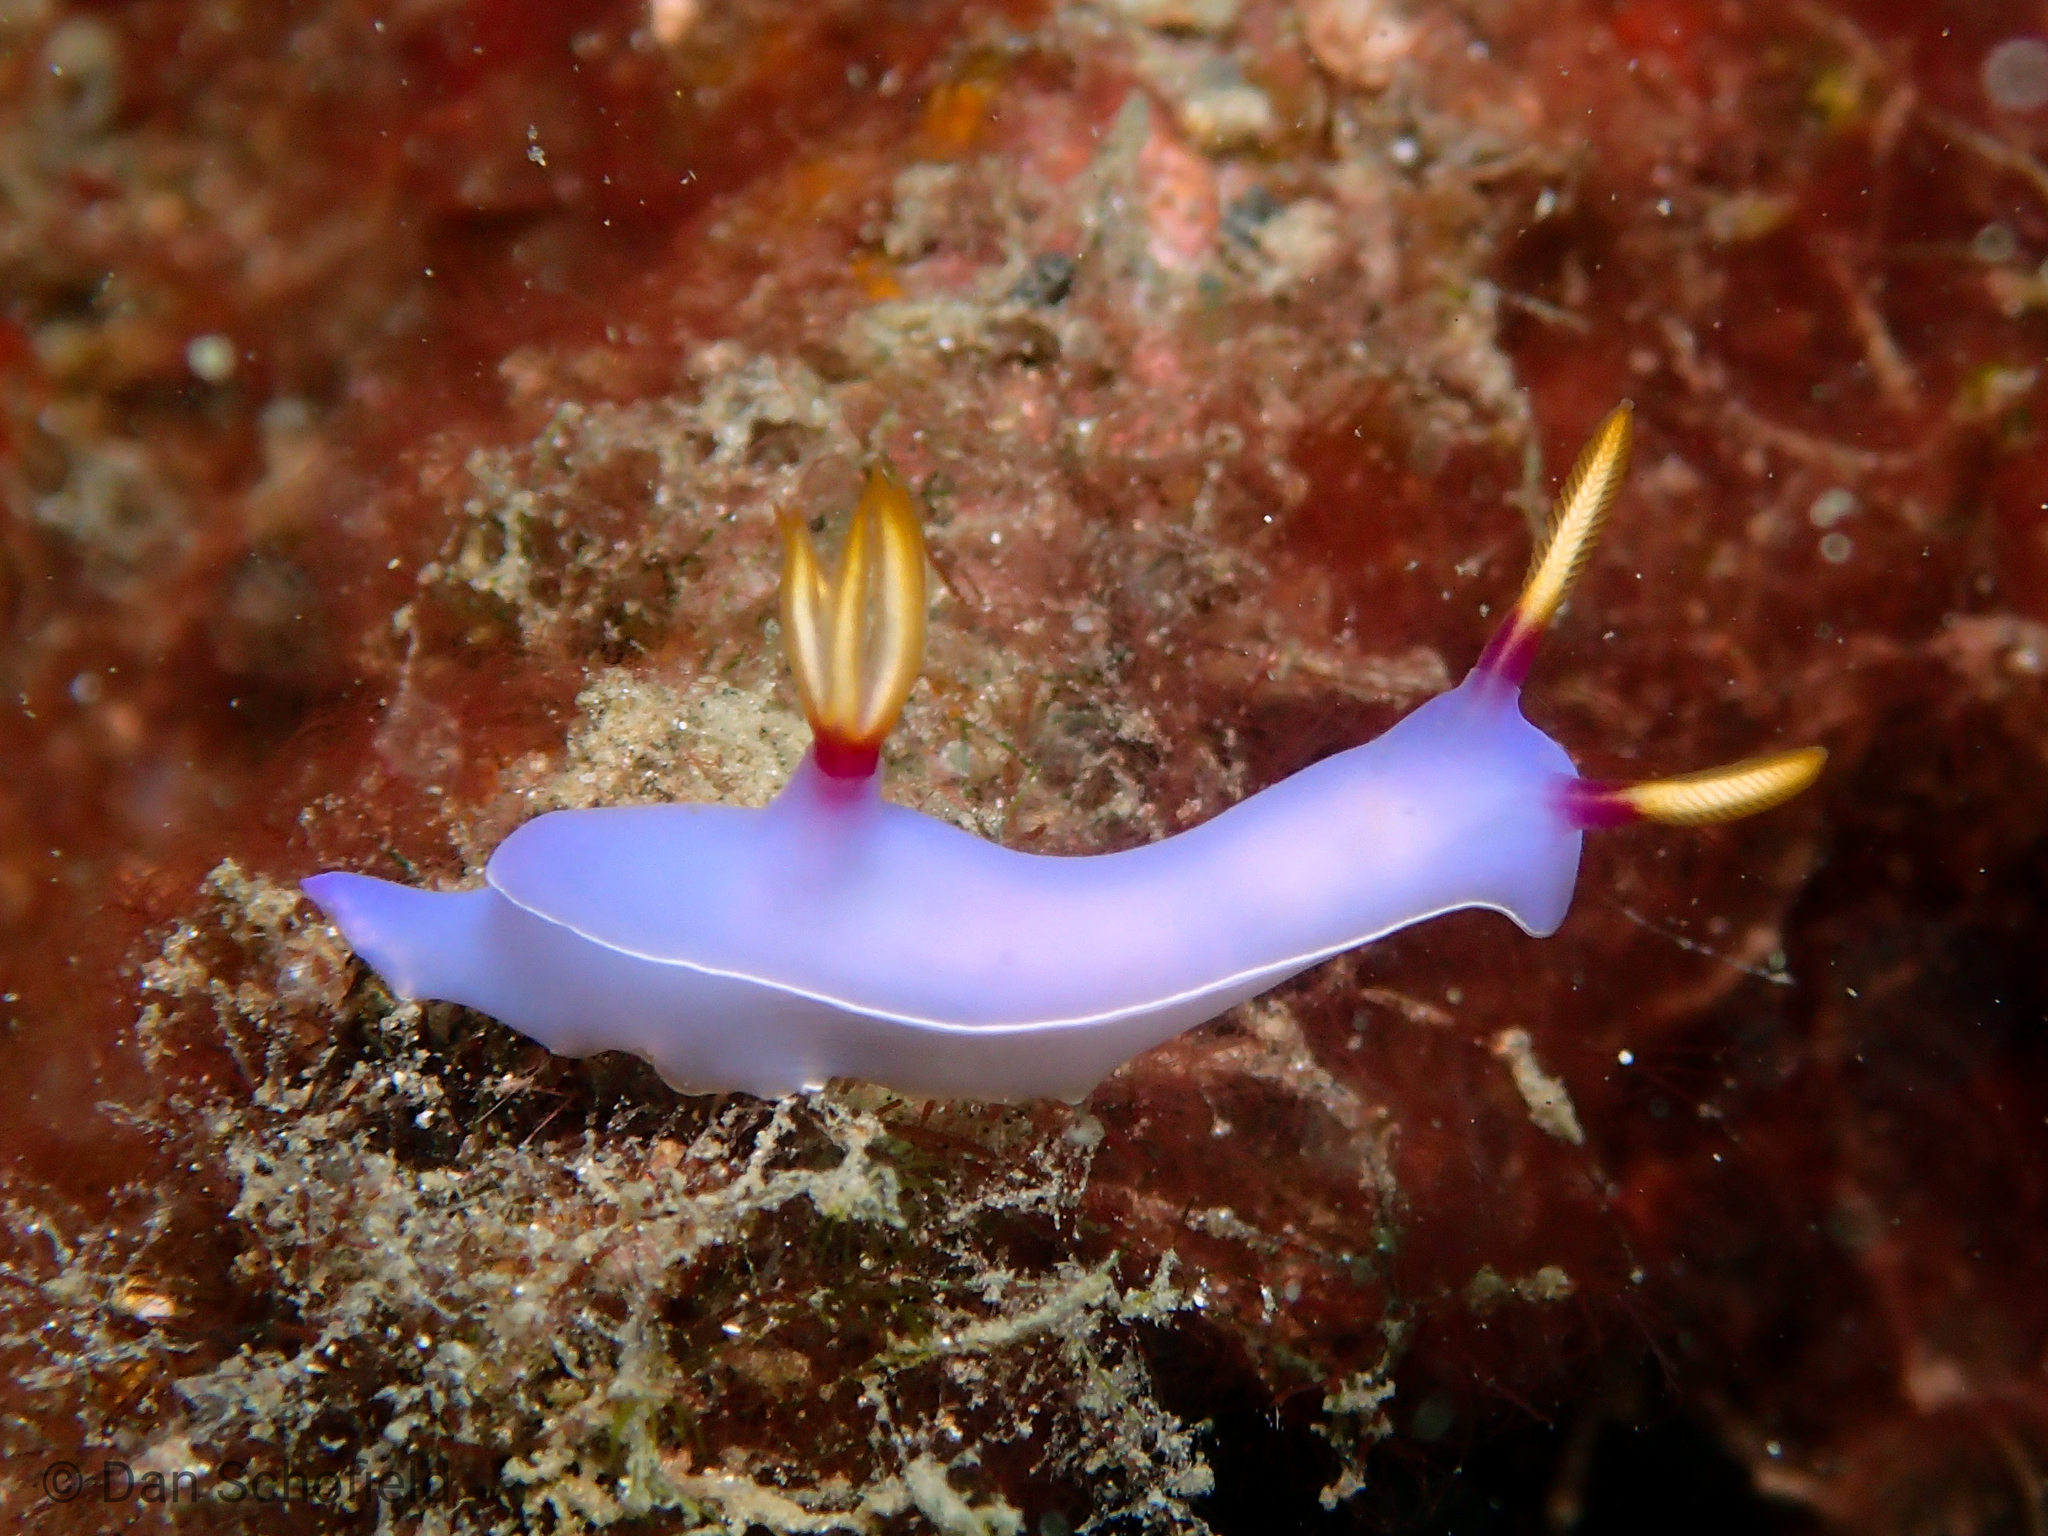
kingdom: Animalia
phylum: Mollusca
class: Gastropoda
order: Nudibranchia
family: Chromodorididae
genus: Hypselodoris
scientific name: Hypselodoris bullockii
